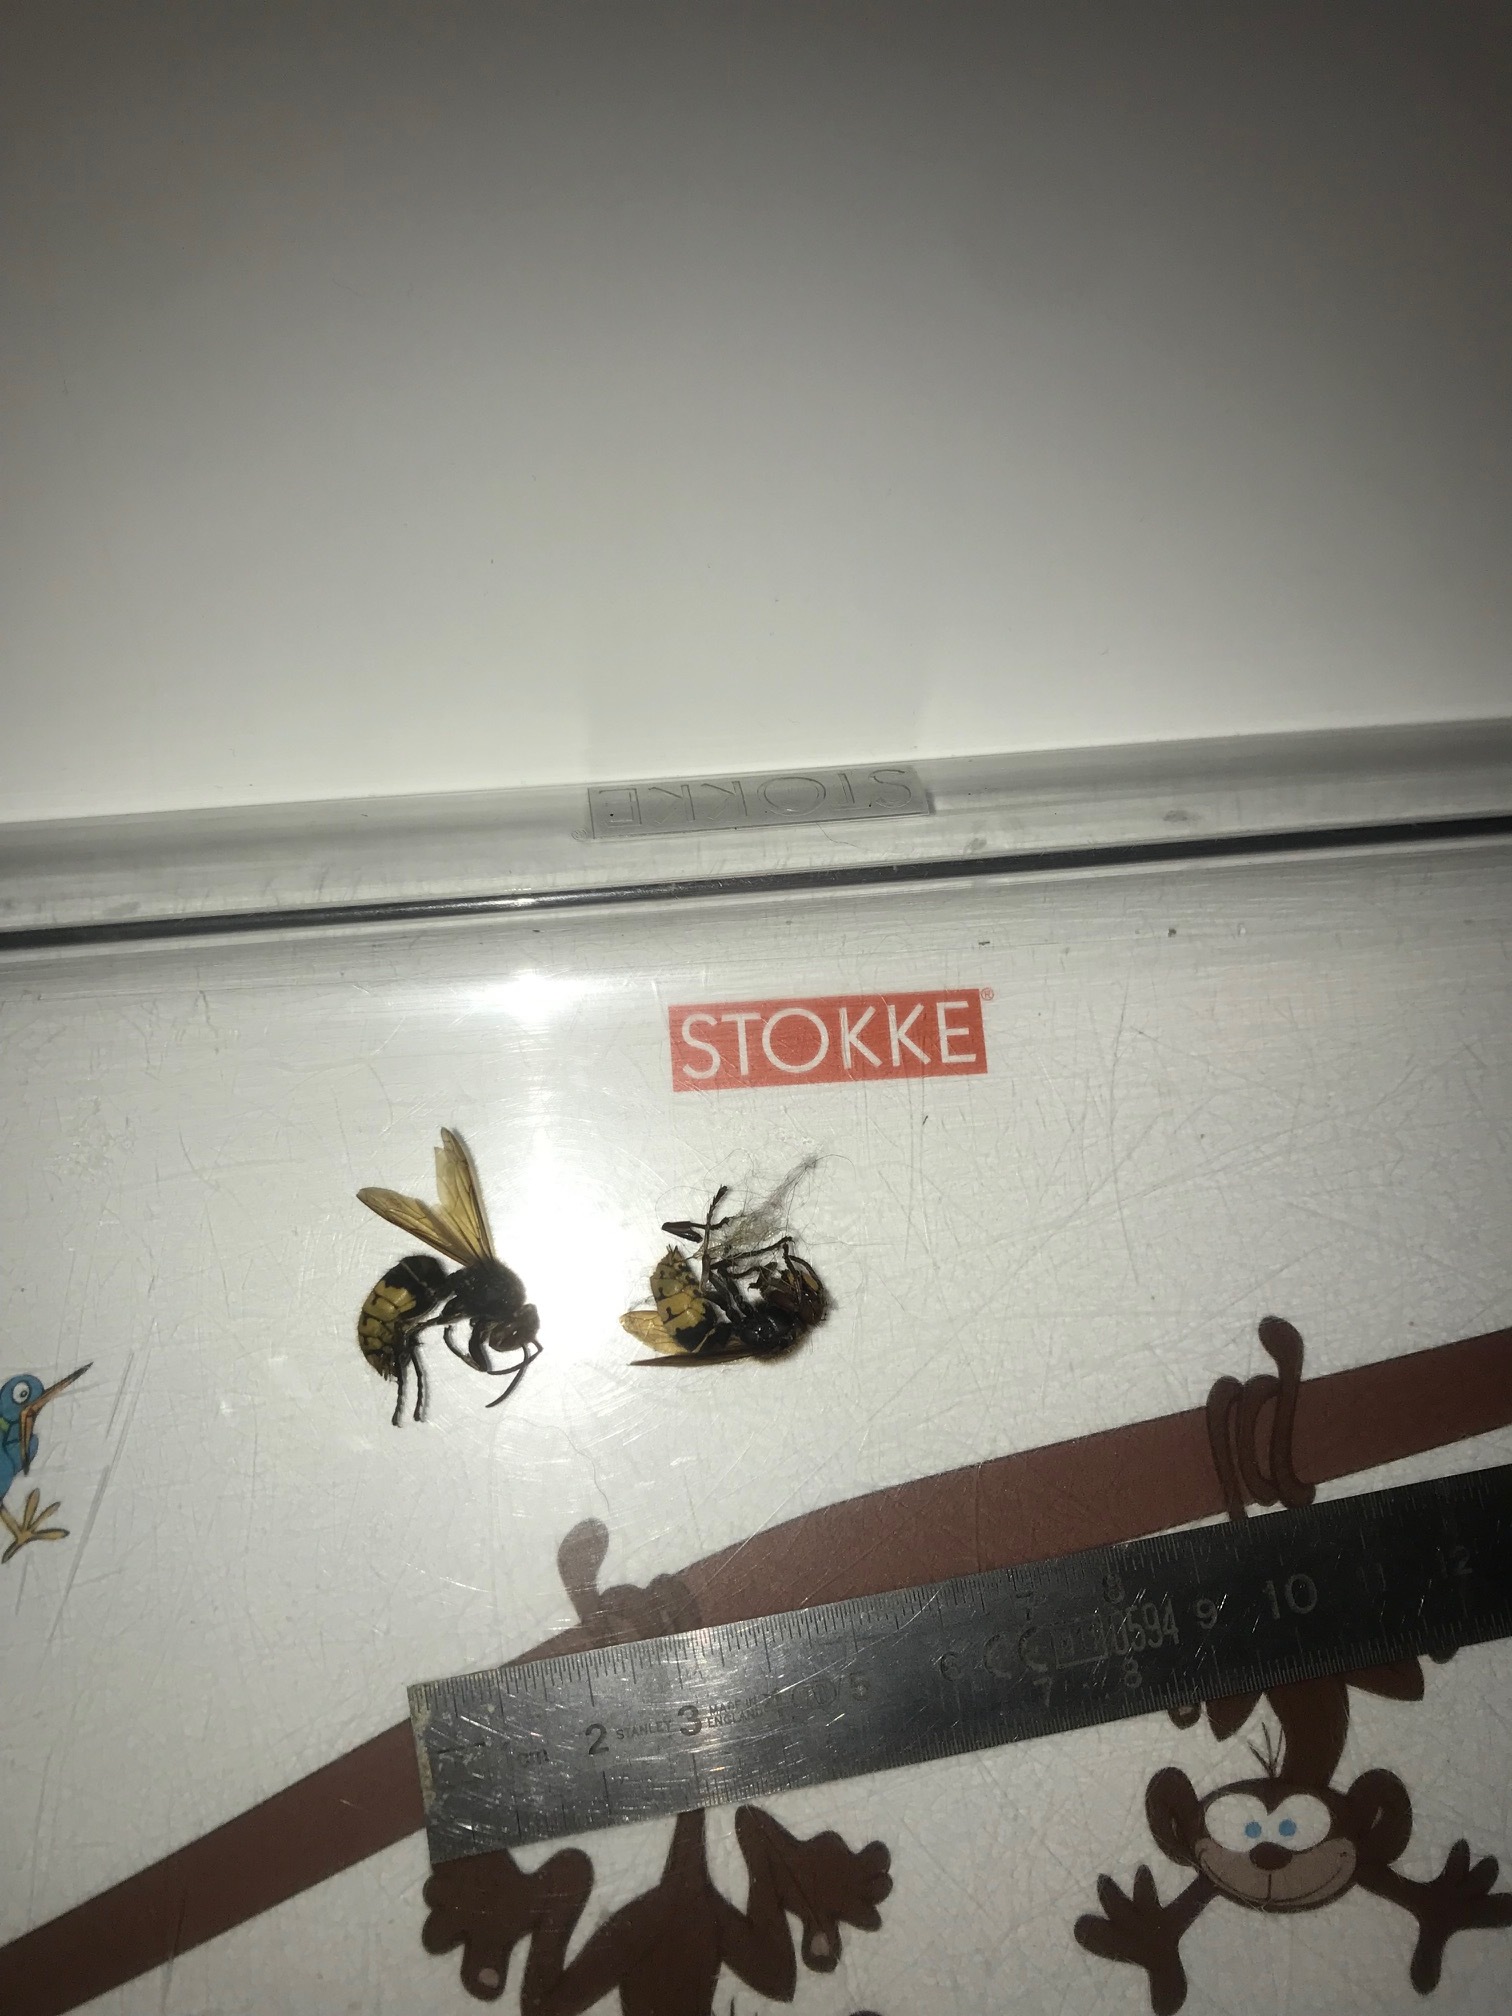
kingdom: Animalia
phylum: Arthropoda
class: Insecta
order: Hymenoptera
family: Vespidae
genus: Vespa
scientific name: Vespa crabro
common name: Hornet
